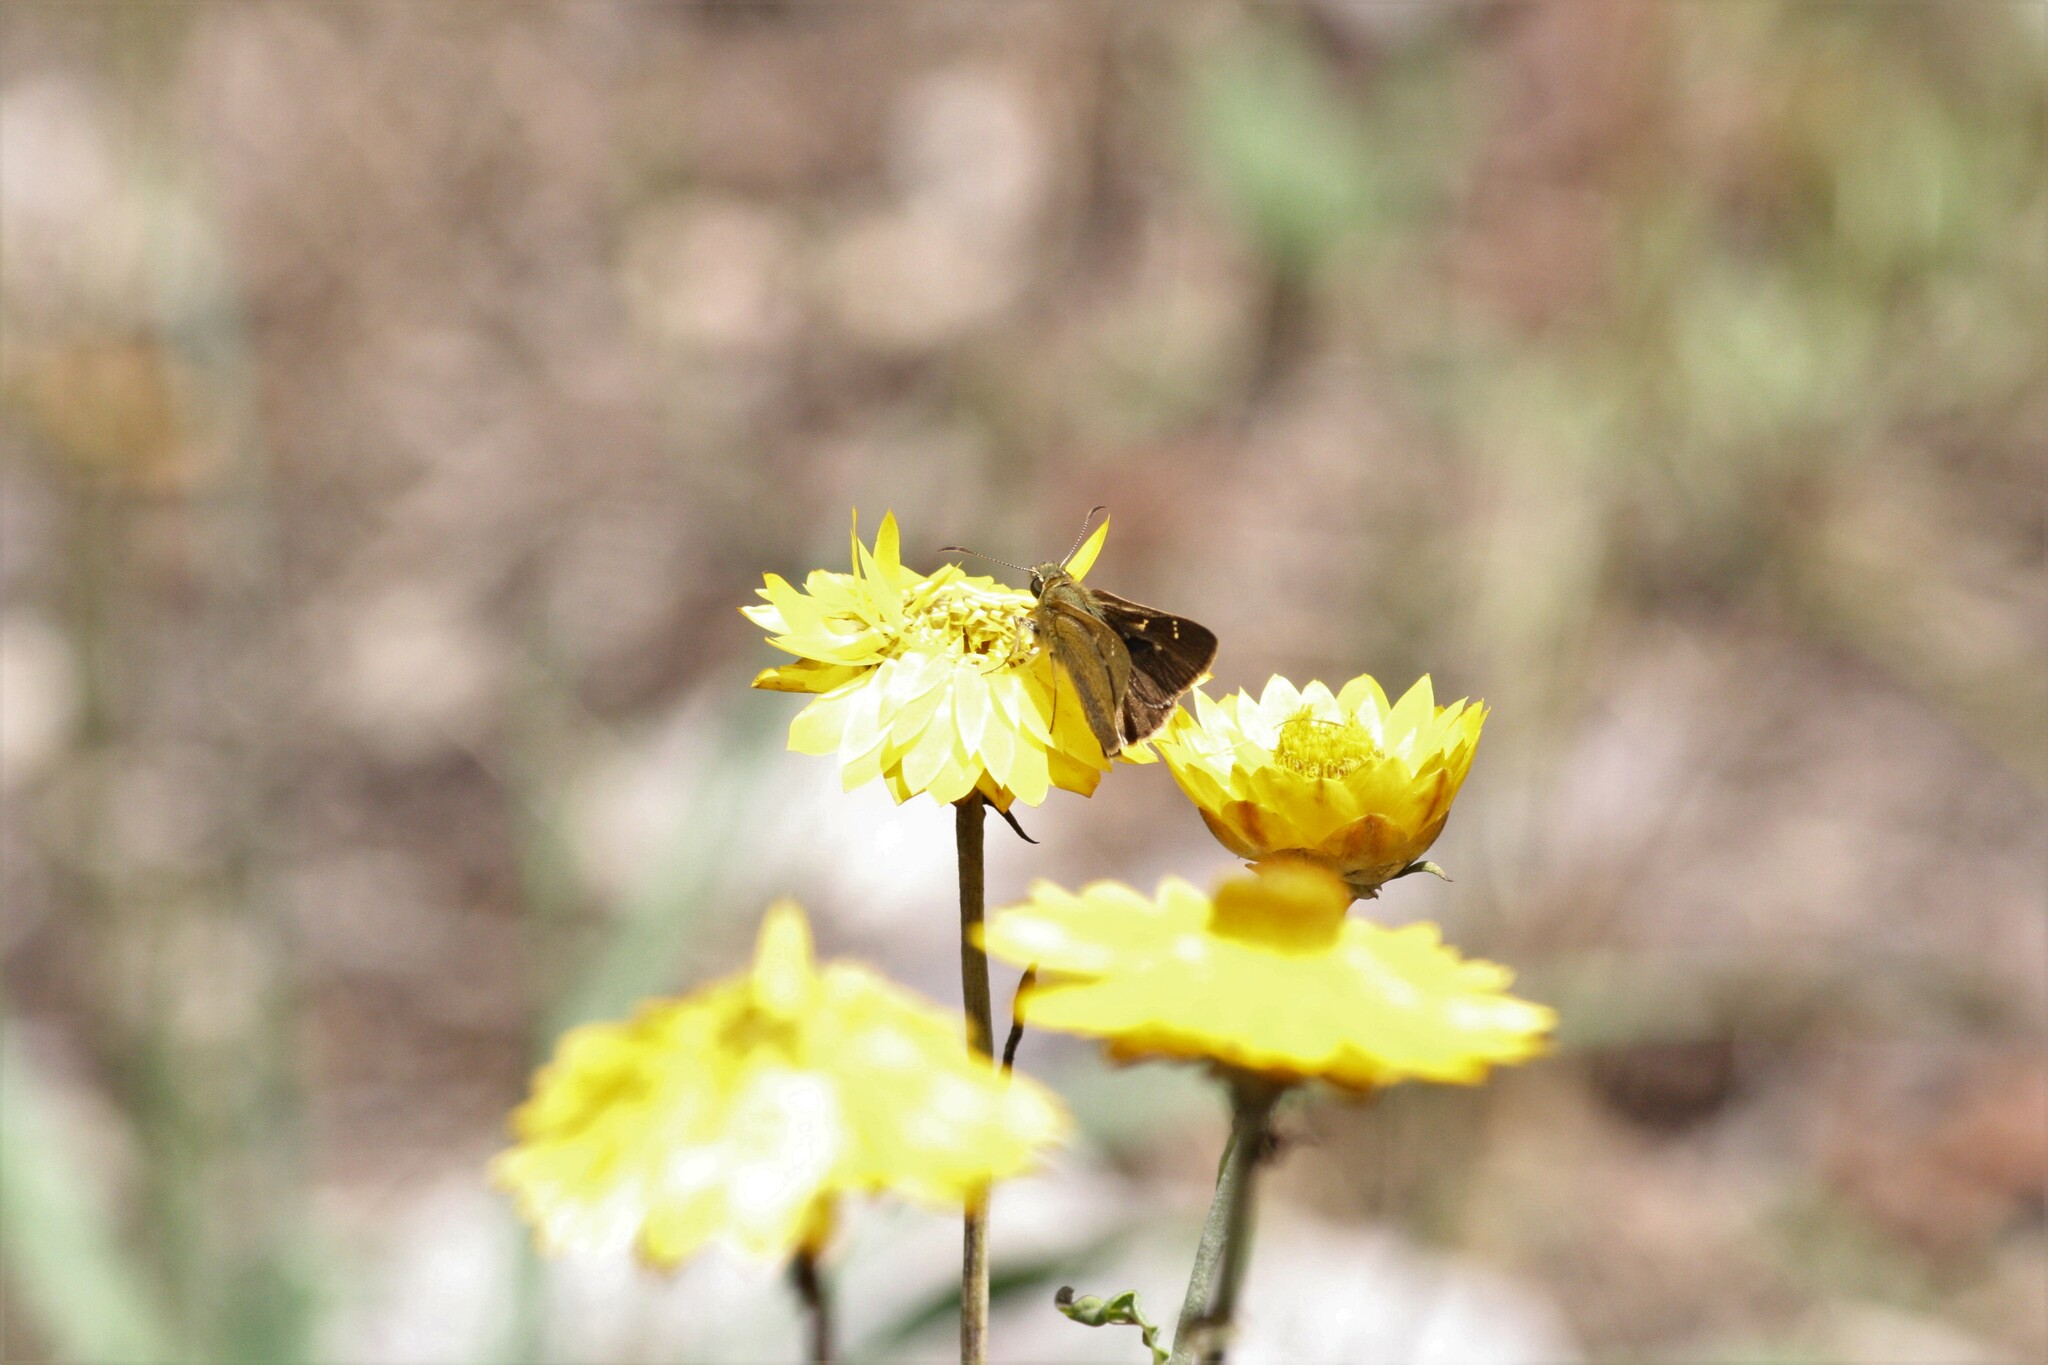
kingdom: Animalia
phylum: Arthropoda
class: Insecta
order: Lepidoptera
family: Hesperiidae
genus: Toxidia
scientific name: Toxidia
